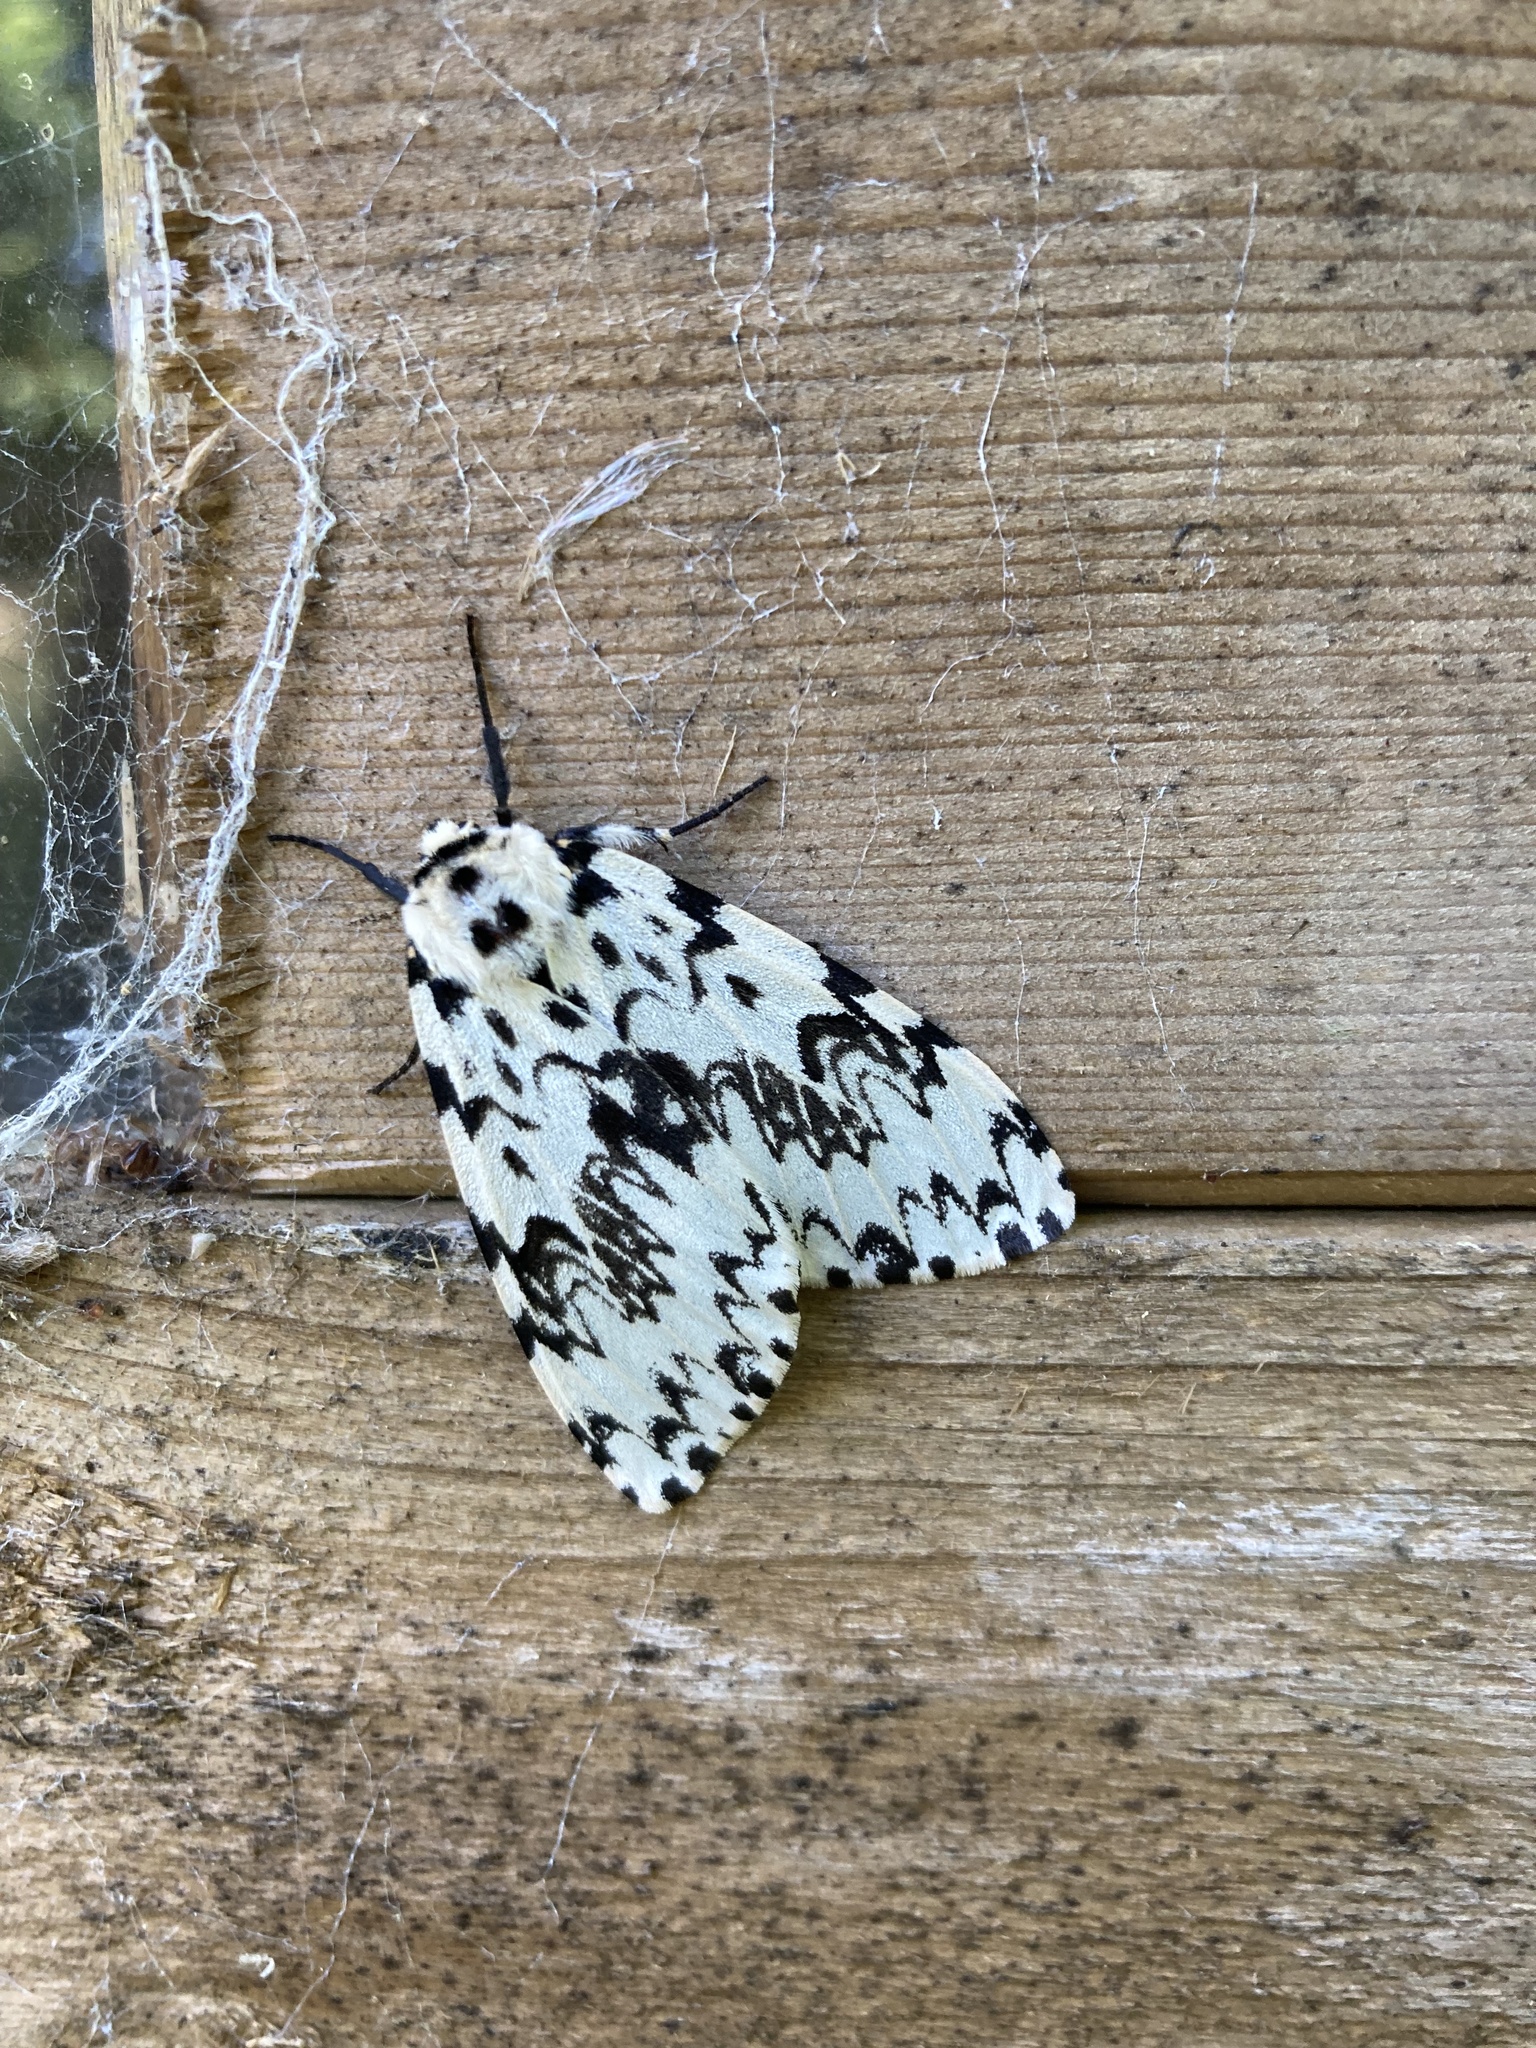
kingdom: Animalia
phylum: Arthropoda
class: Insecta
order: Lepidoptera
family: Erebidae
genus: Lymantria
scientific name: Lymantria monacha
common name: Black arches
